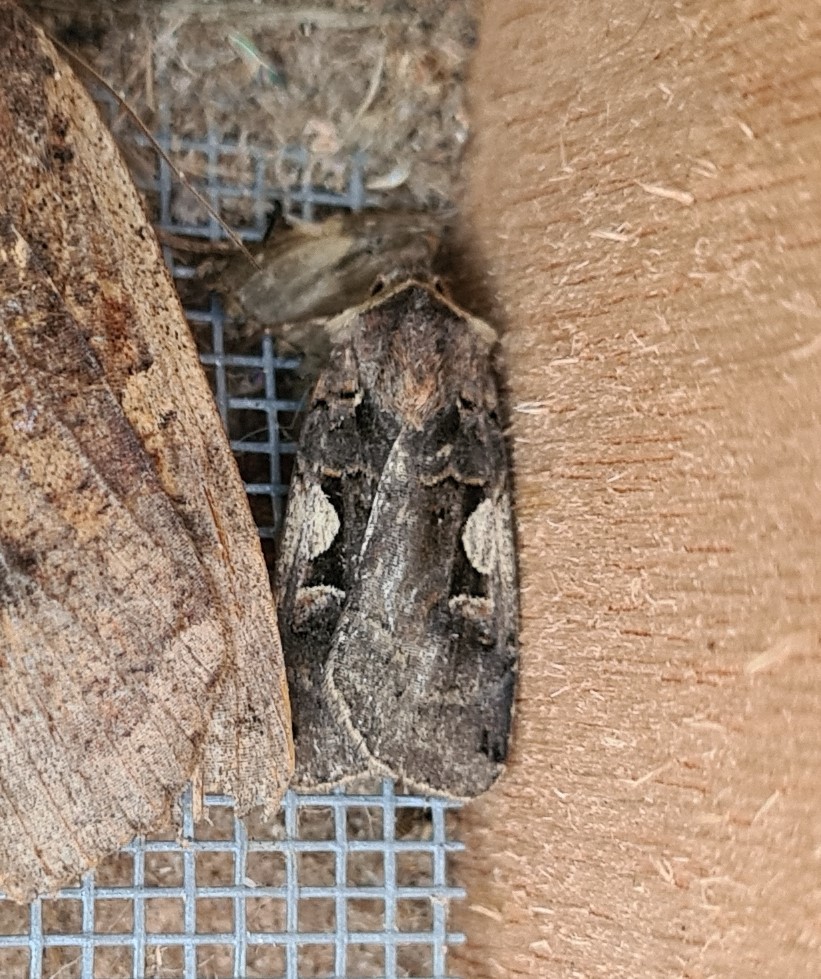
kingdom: Animalia
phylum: Arthropoda
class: Insecta
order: Lepidoptera
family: Noctuidae
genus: Xestia
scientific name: Xestia c-nigrum
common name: Setaceous hebrew character
